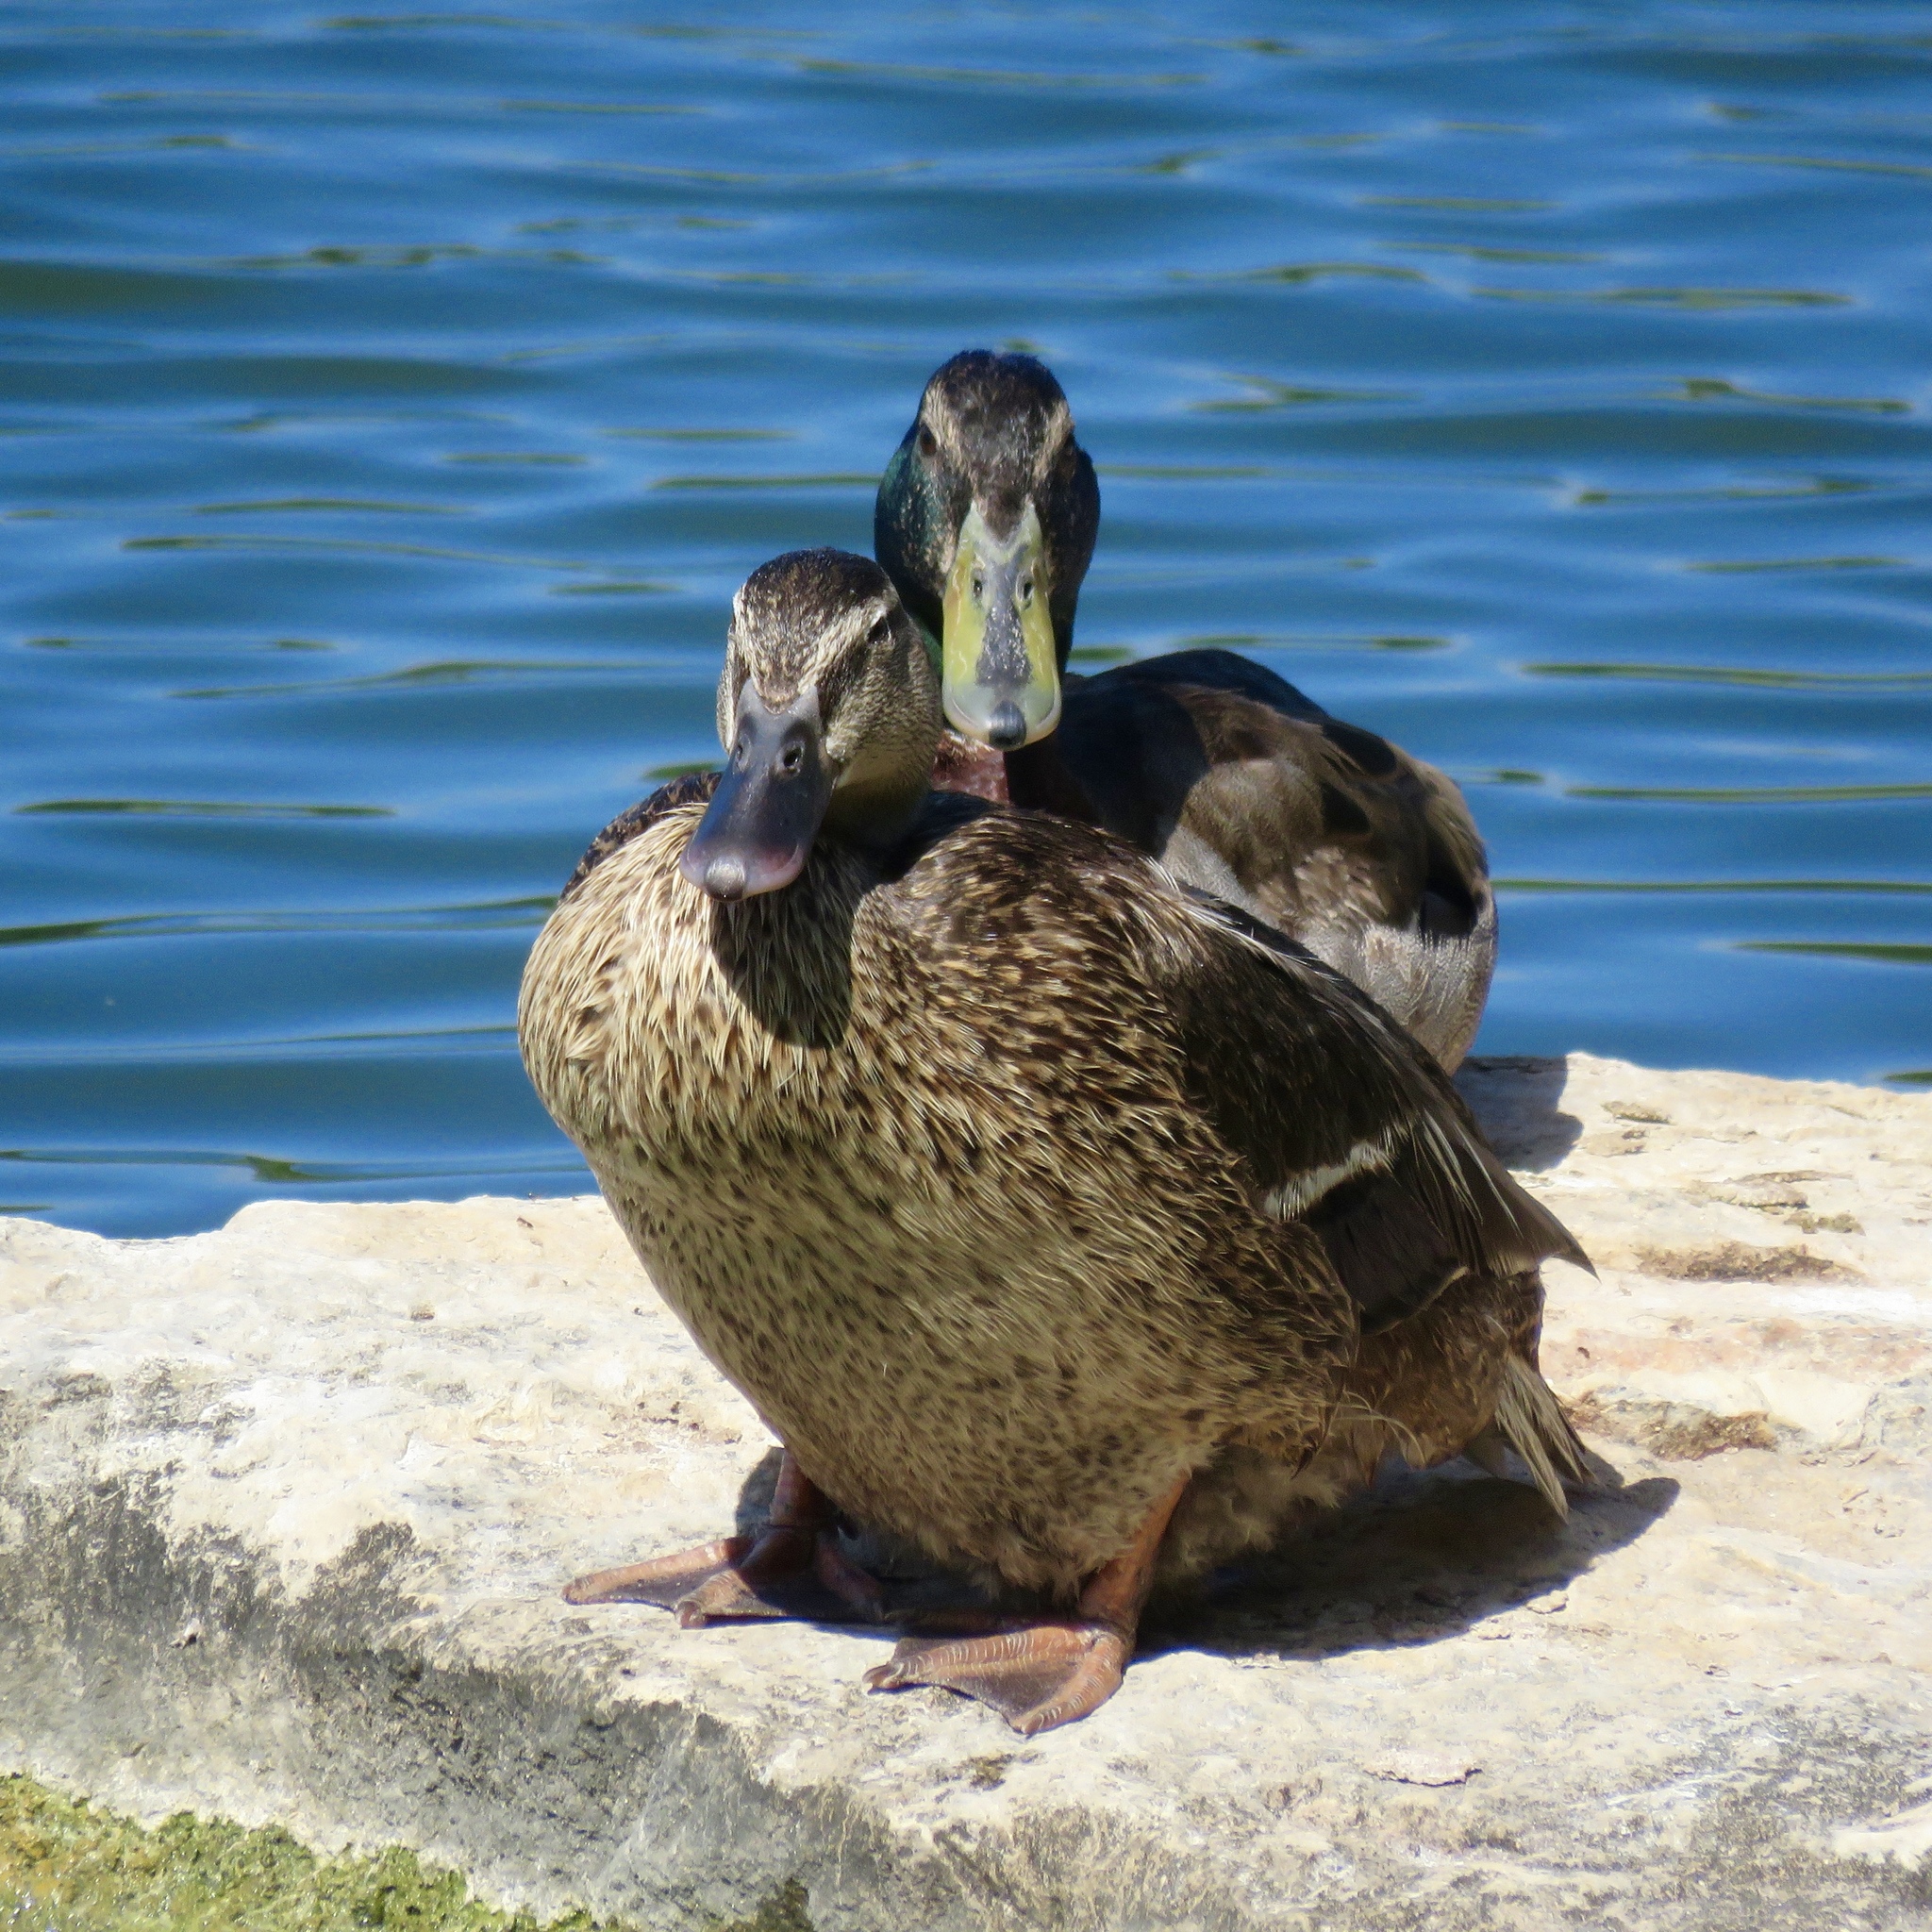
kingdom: Animalia
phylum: Chordata
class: Aves
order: Anseriformes
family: Anatidae
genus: Anas
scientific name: Anas platyrhynchos
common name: Mallard
